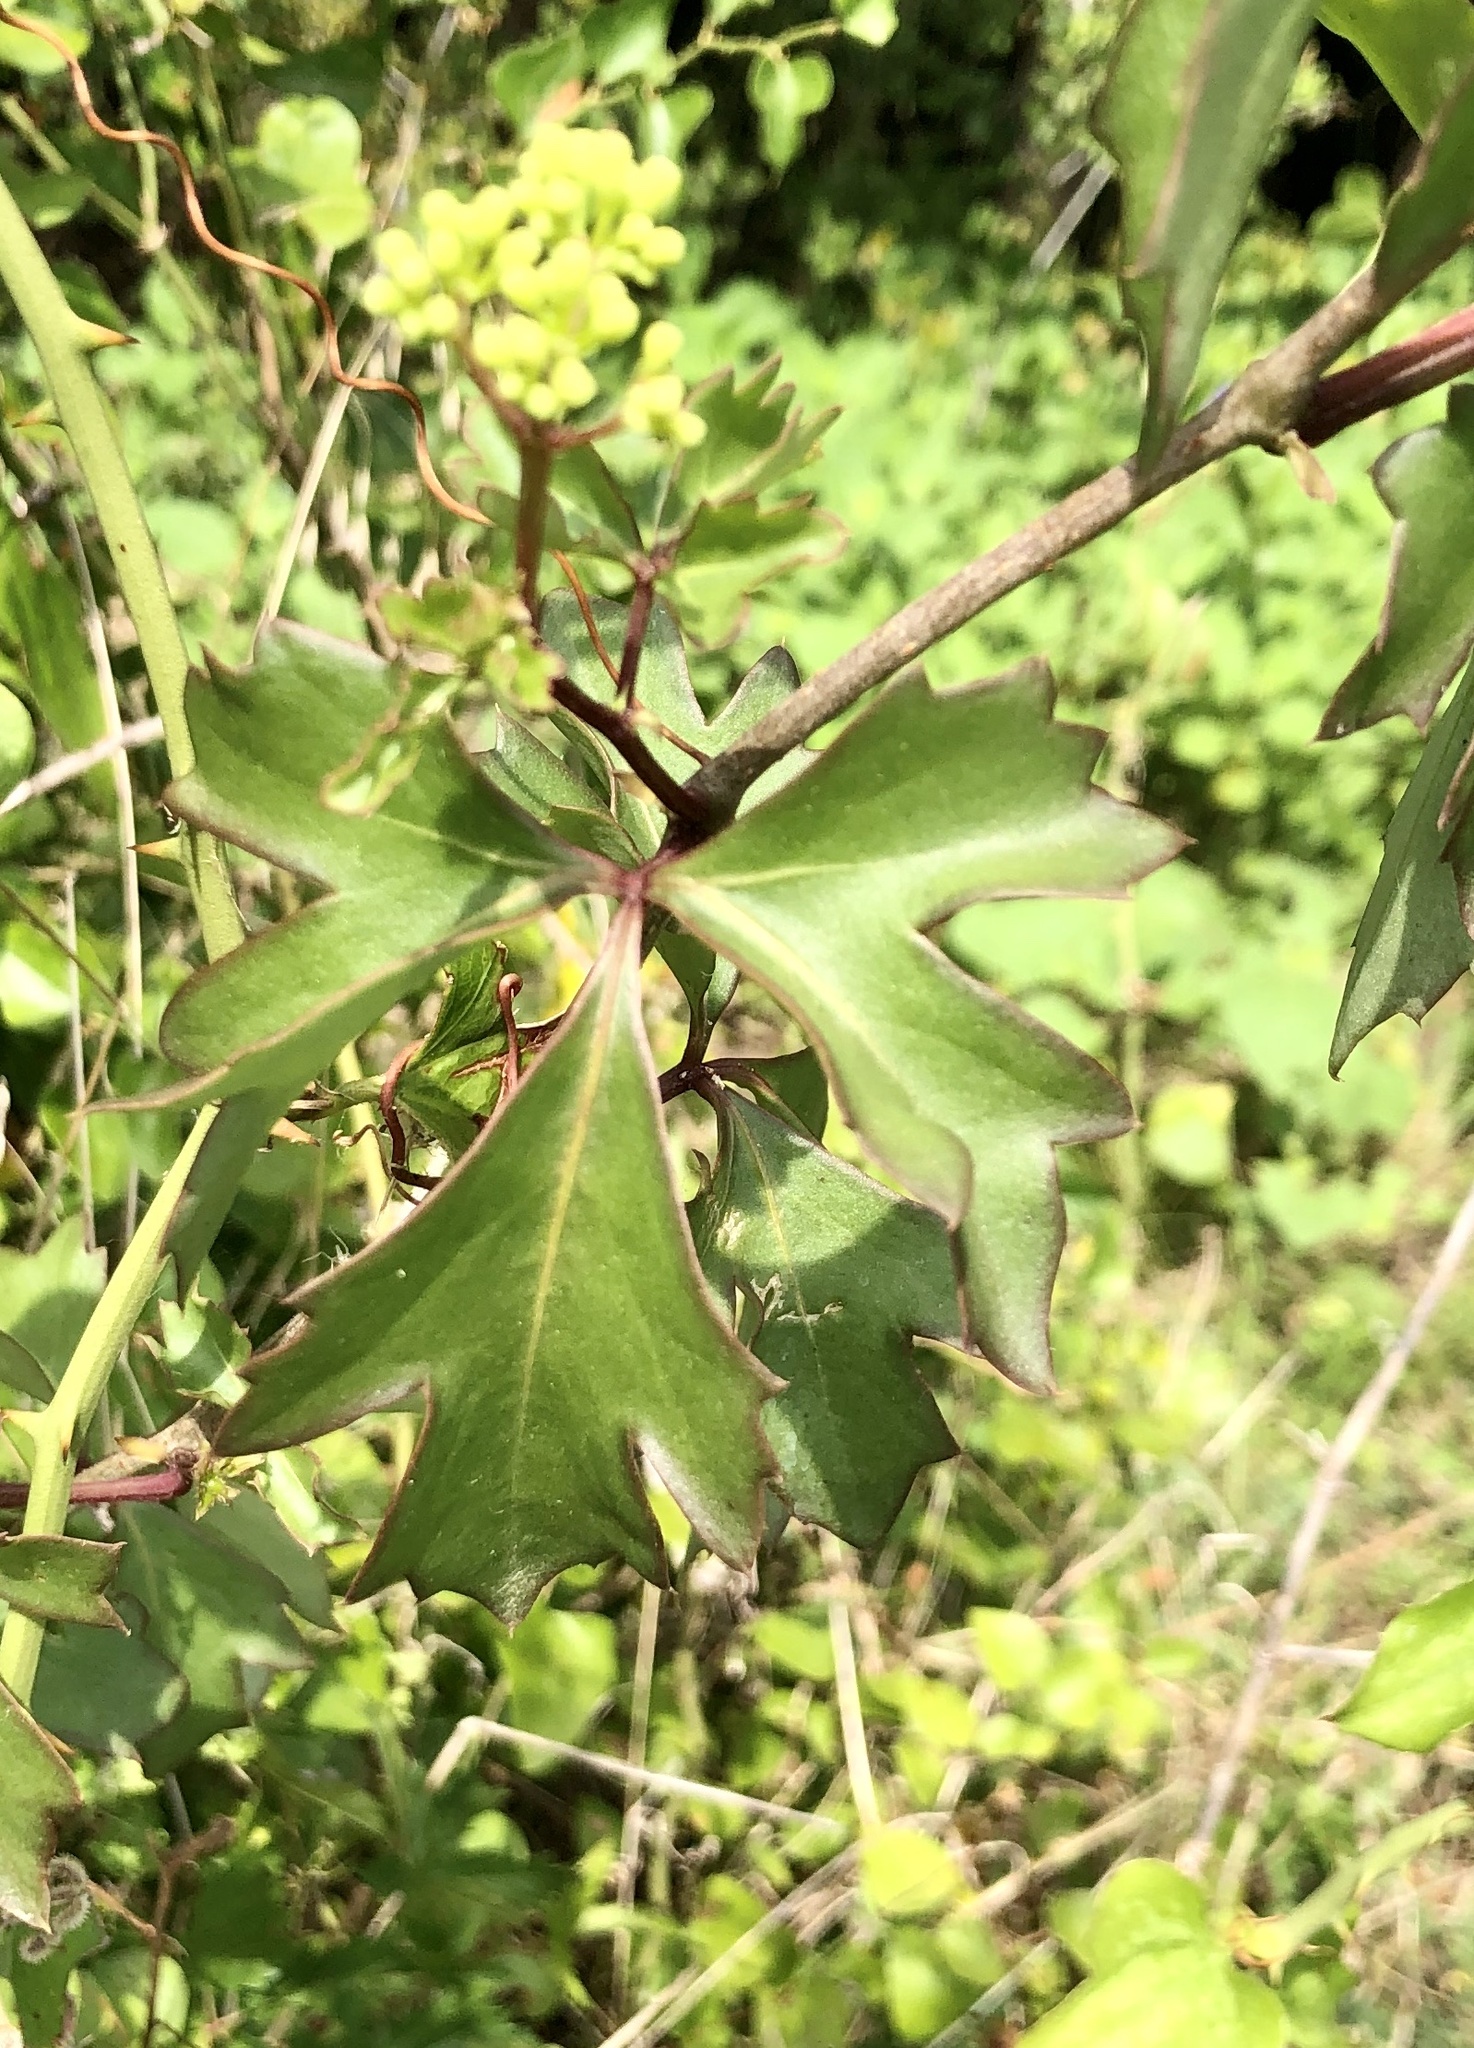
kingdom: Plantae
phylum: Tracheophyta
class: Magnoliopsida
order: Vitales
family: Vitaceae
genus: Cissus
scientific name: Cissus trifoliata
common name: Vine-sorrel
